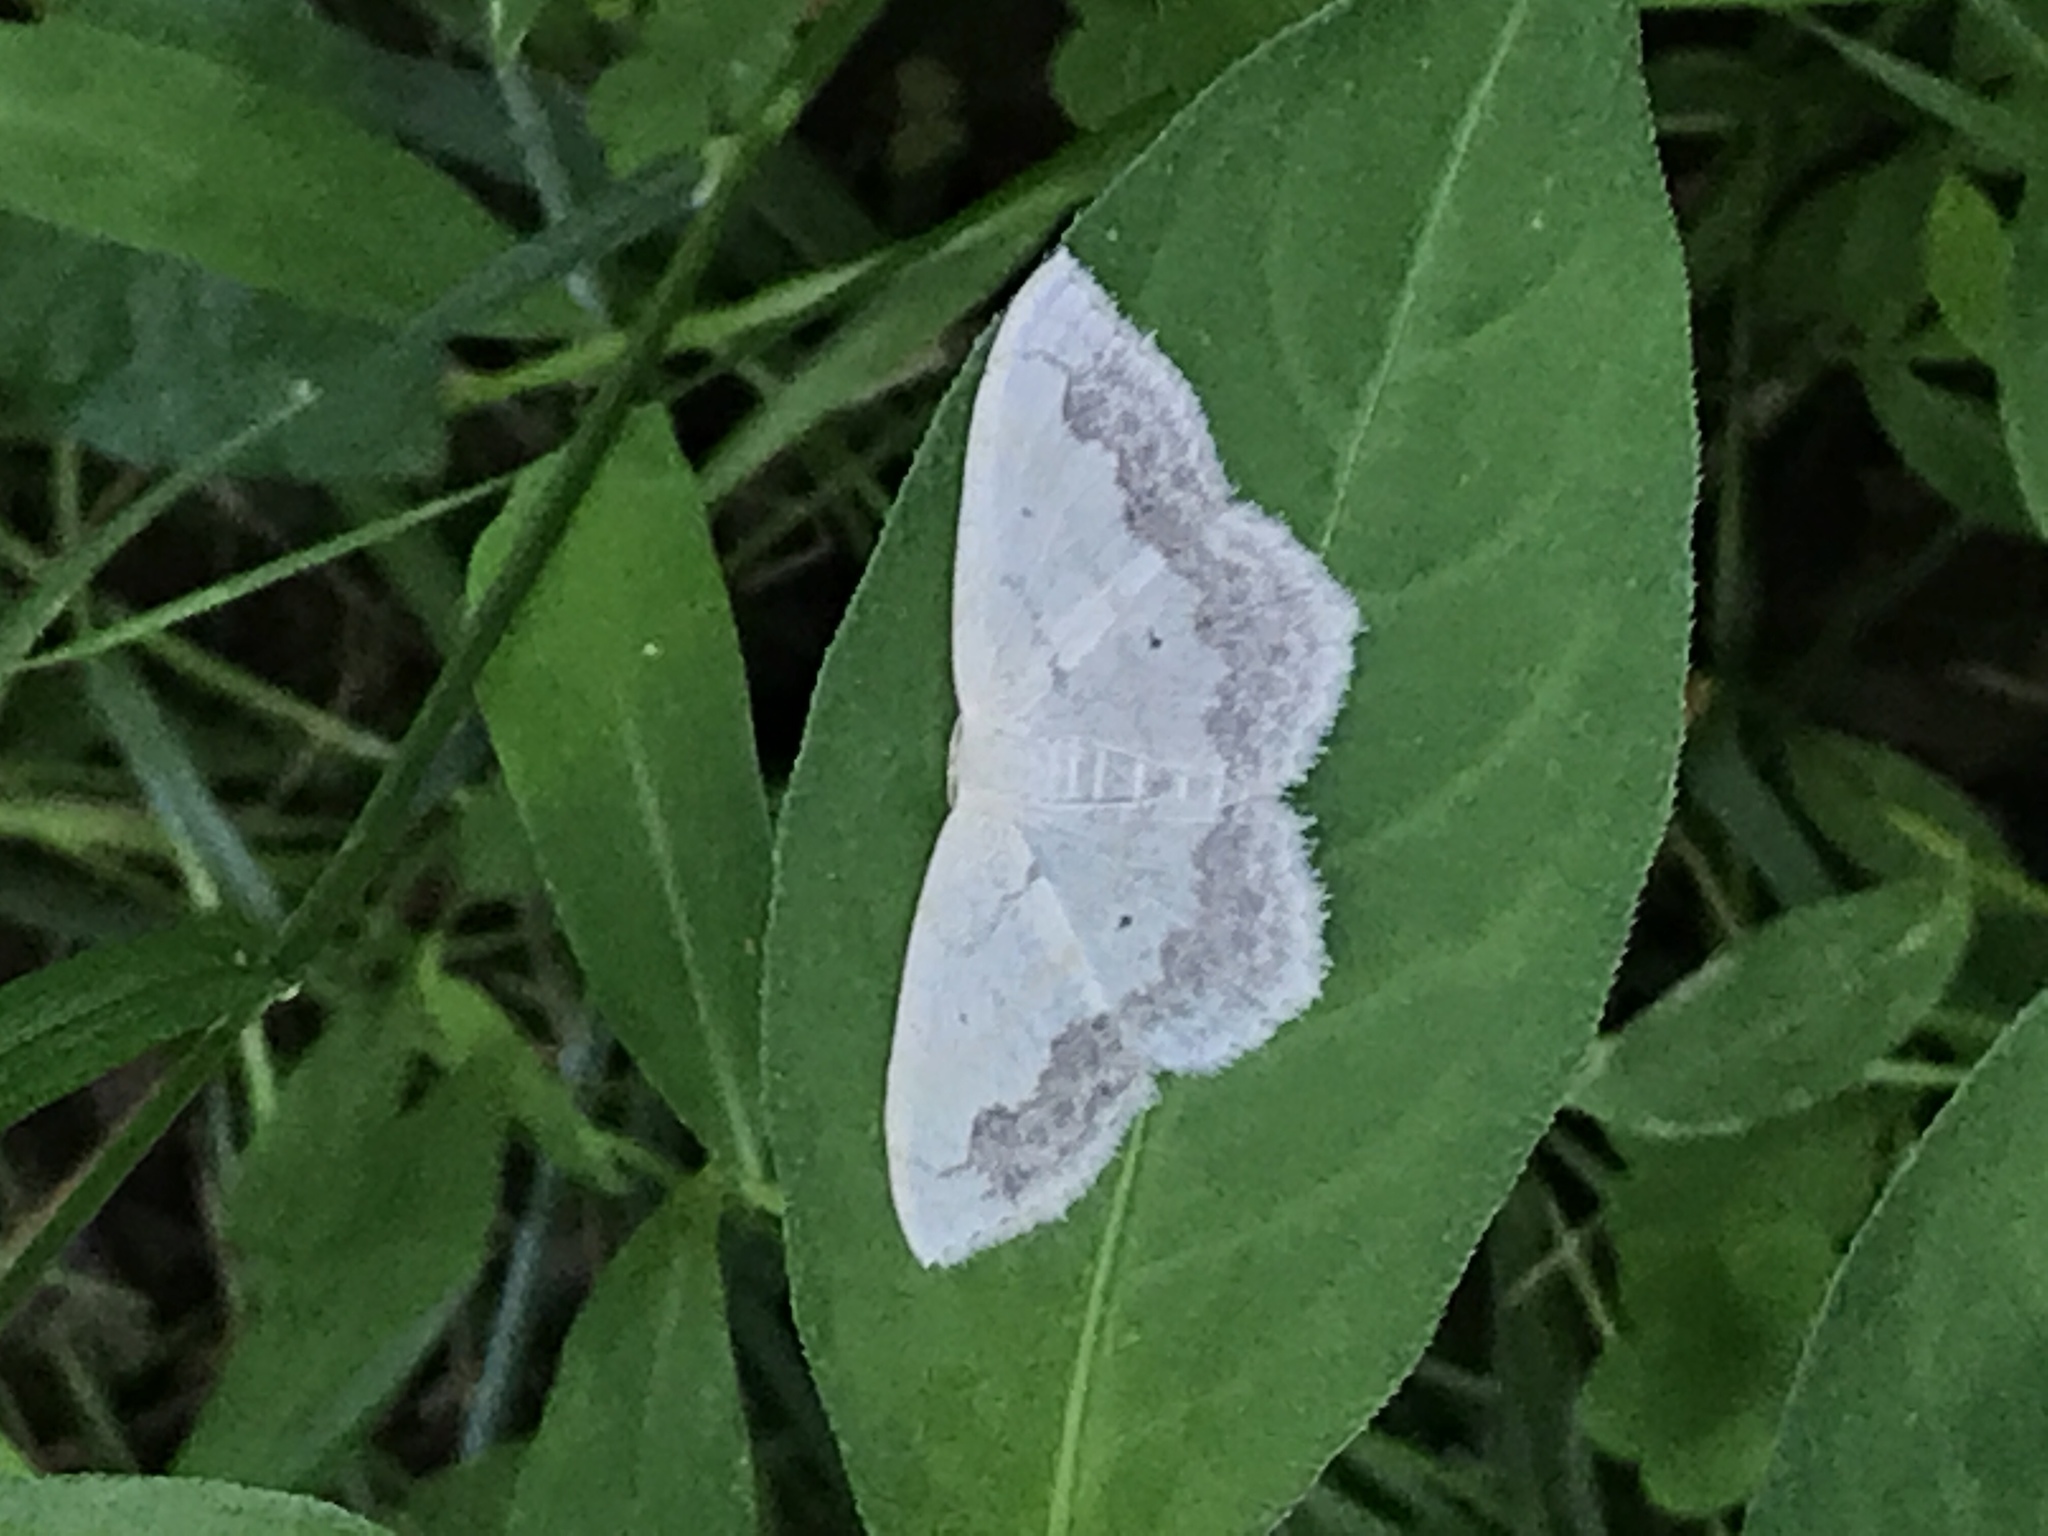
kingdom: Animalia
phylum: Arthropoda
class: Insecta
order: Lepidoptera
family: Geometridae
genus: Scopula
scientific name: Scopula limboundata
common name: Large lace border
